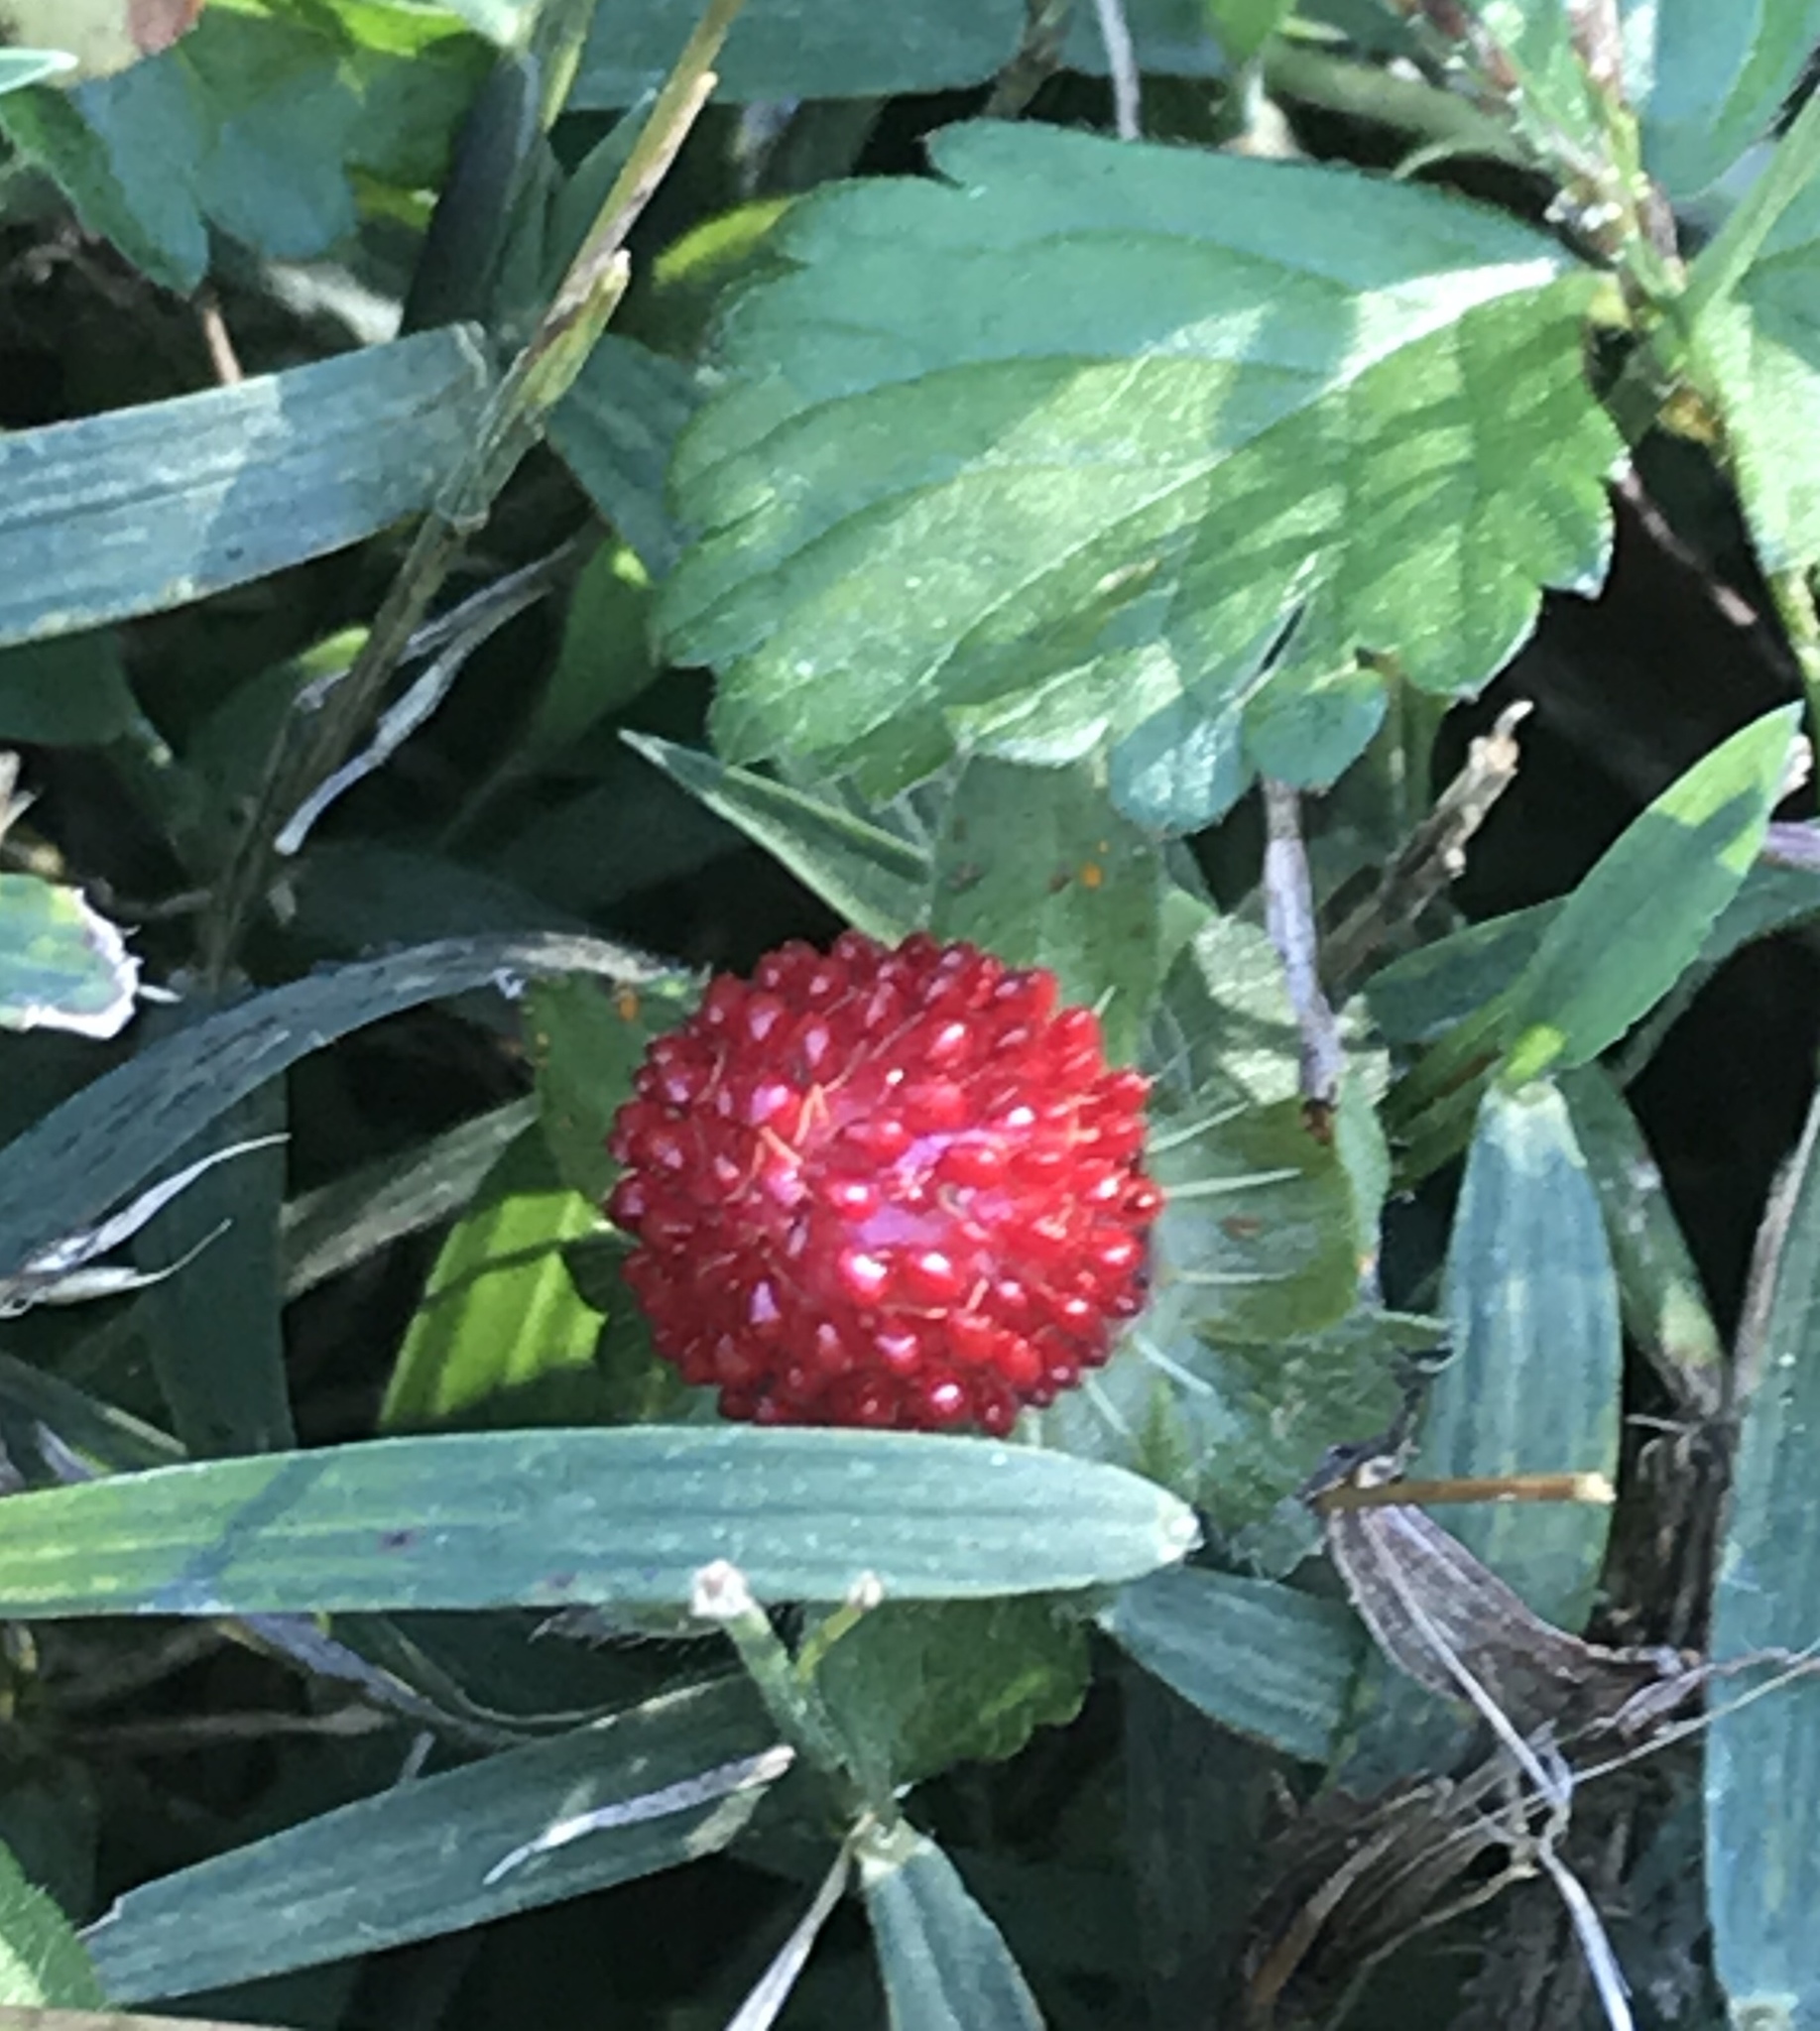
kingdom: Plantae
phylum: Tracheophyta
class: Magnoliopsida
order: Rosales
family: Rosaceae
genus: Potentilla
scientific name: Potentilla indica
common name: Yellow-flowered strawberry
